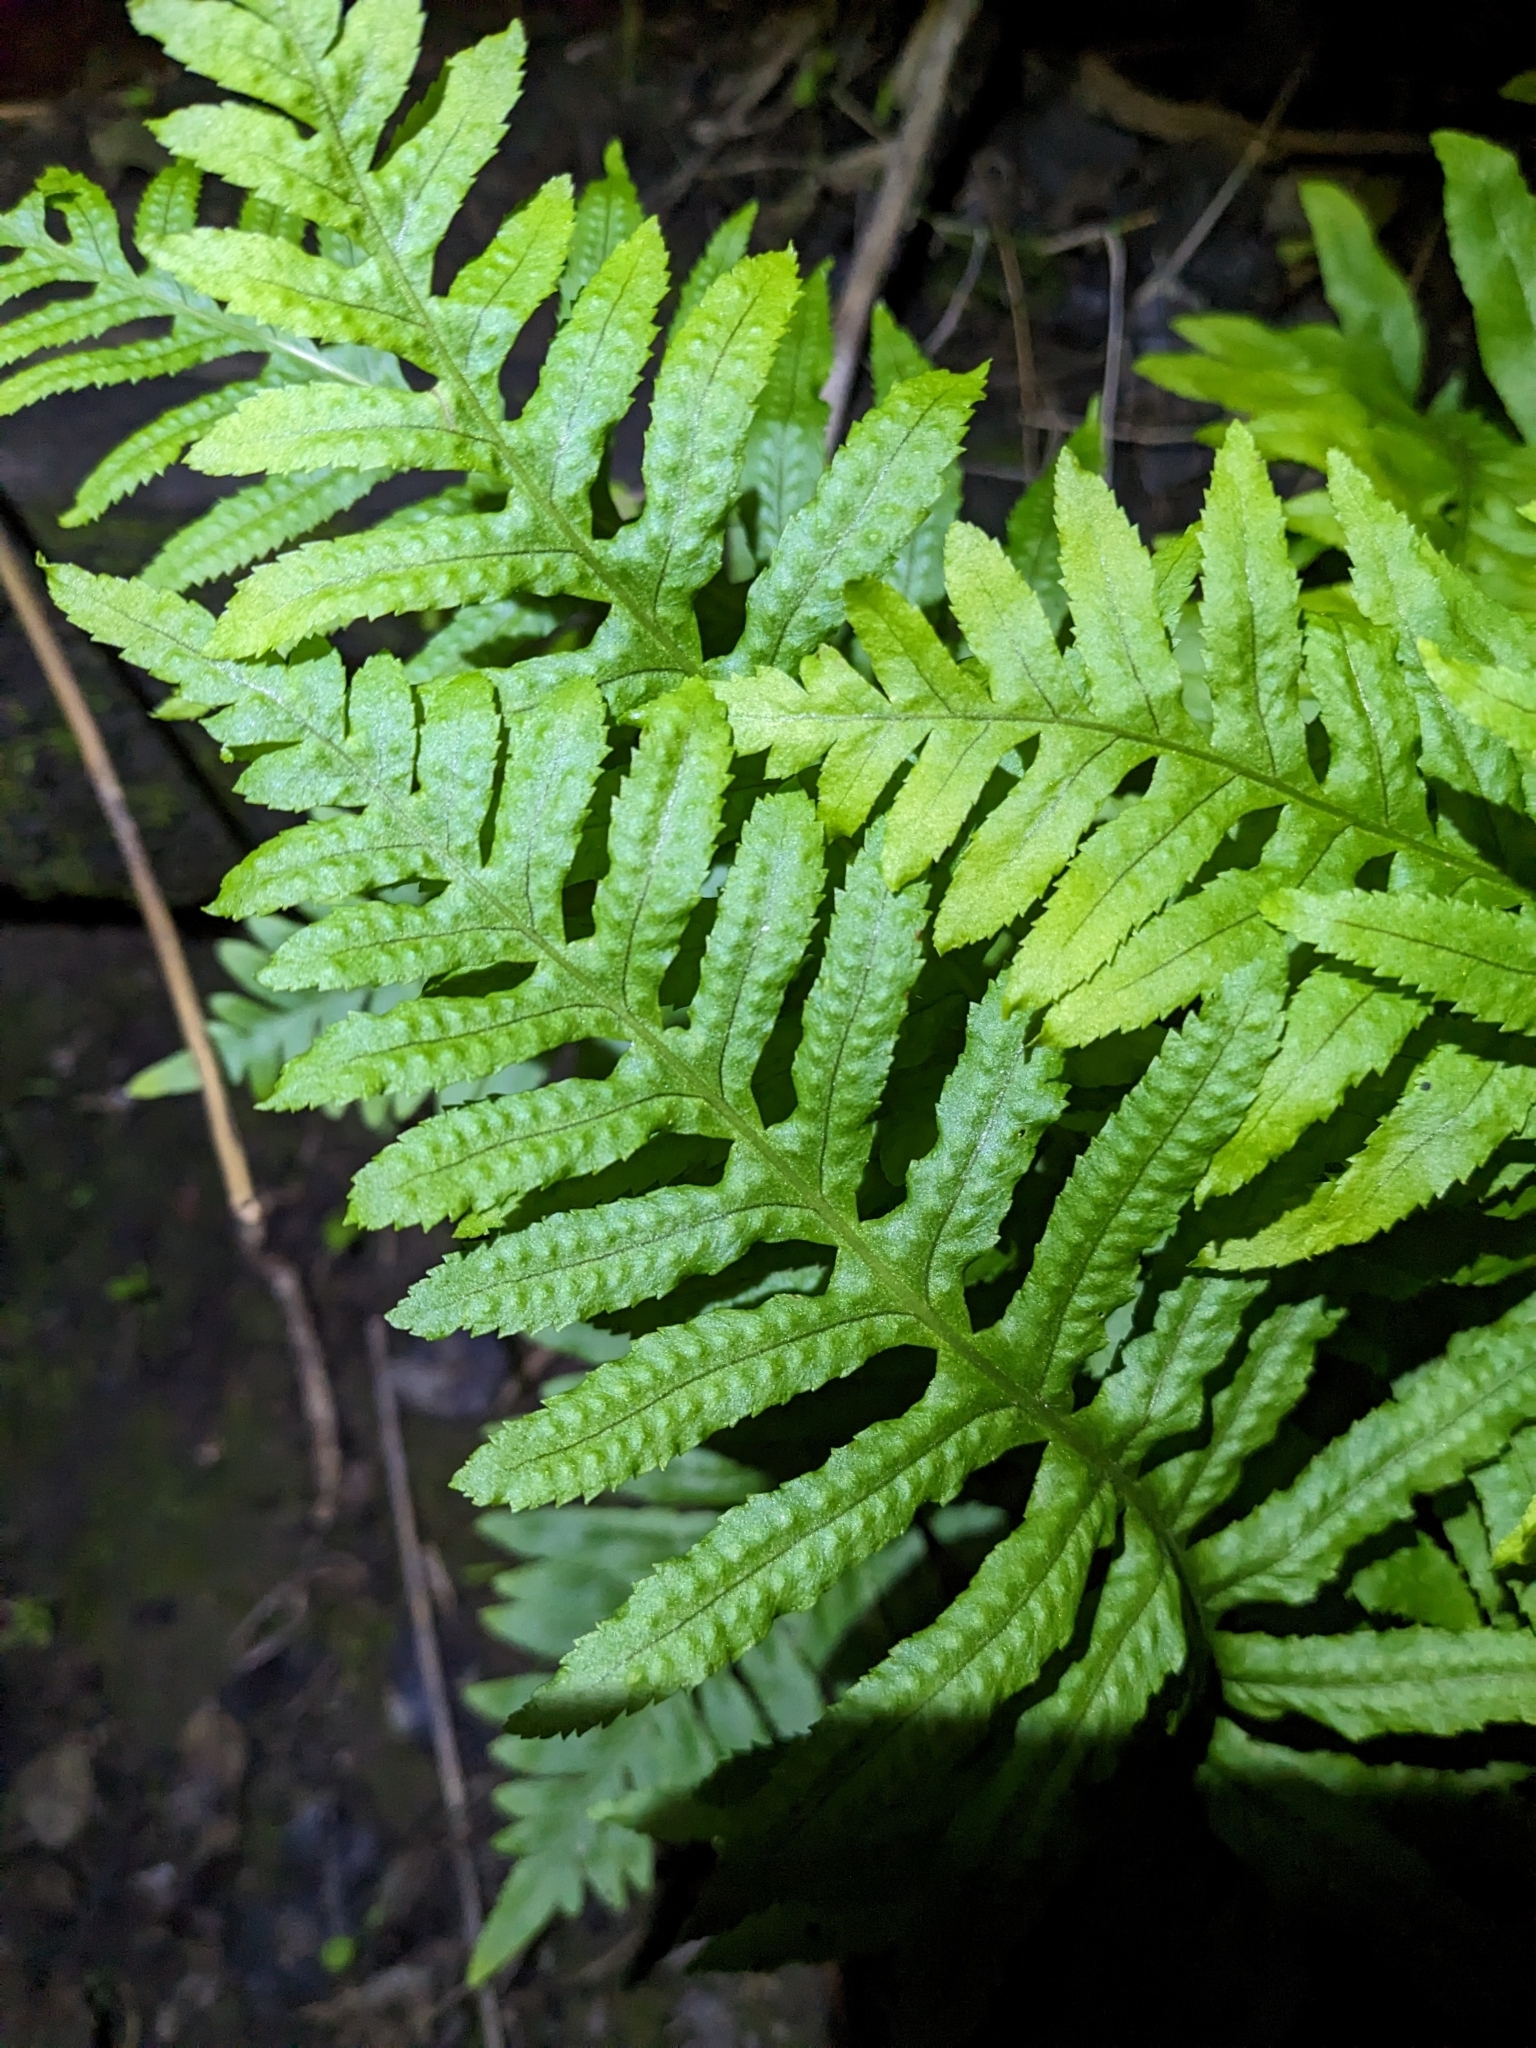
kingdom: Plantae
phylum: Tracheophyta
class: Polypodiopsida
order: Polypodiales
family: Polypodiaceae
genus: Polypodium
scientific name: Polypodium californicum
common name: California polypody
